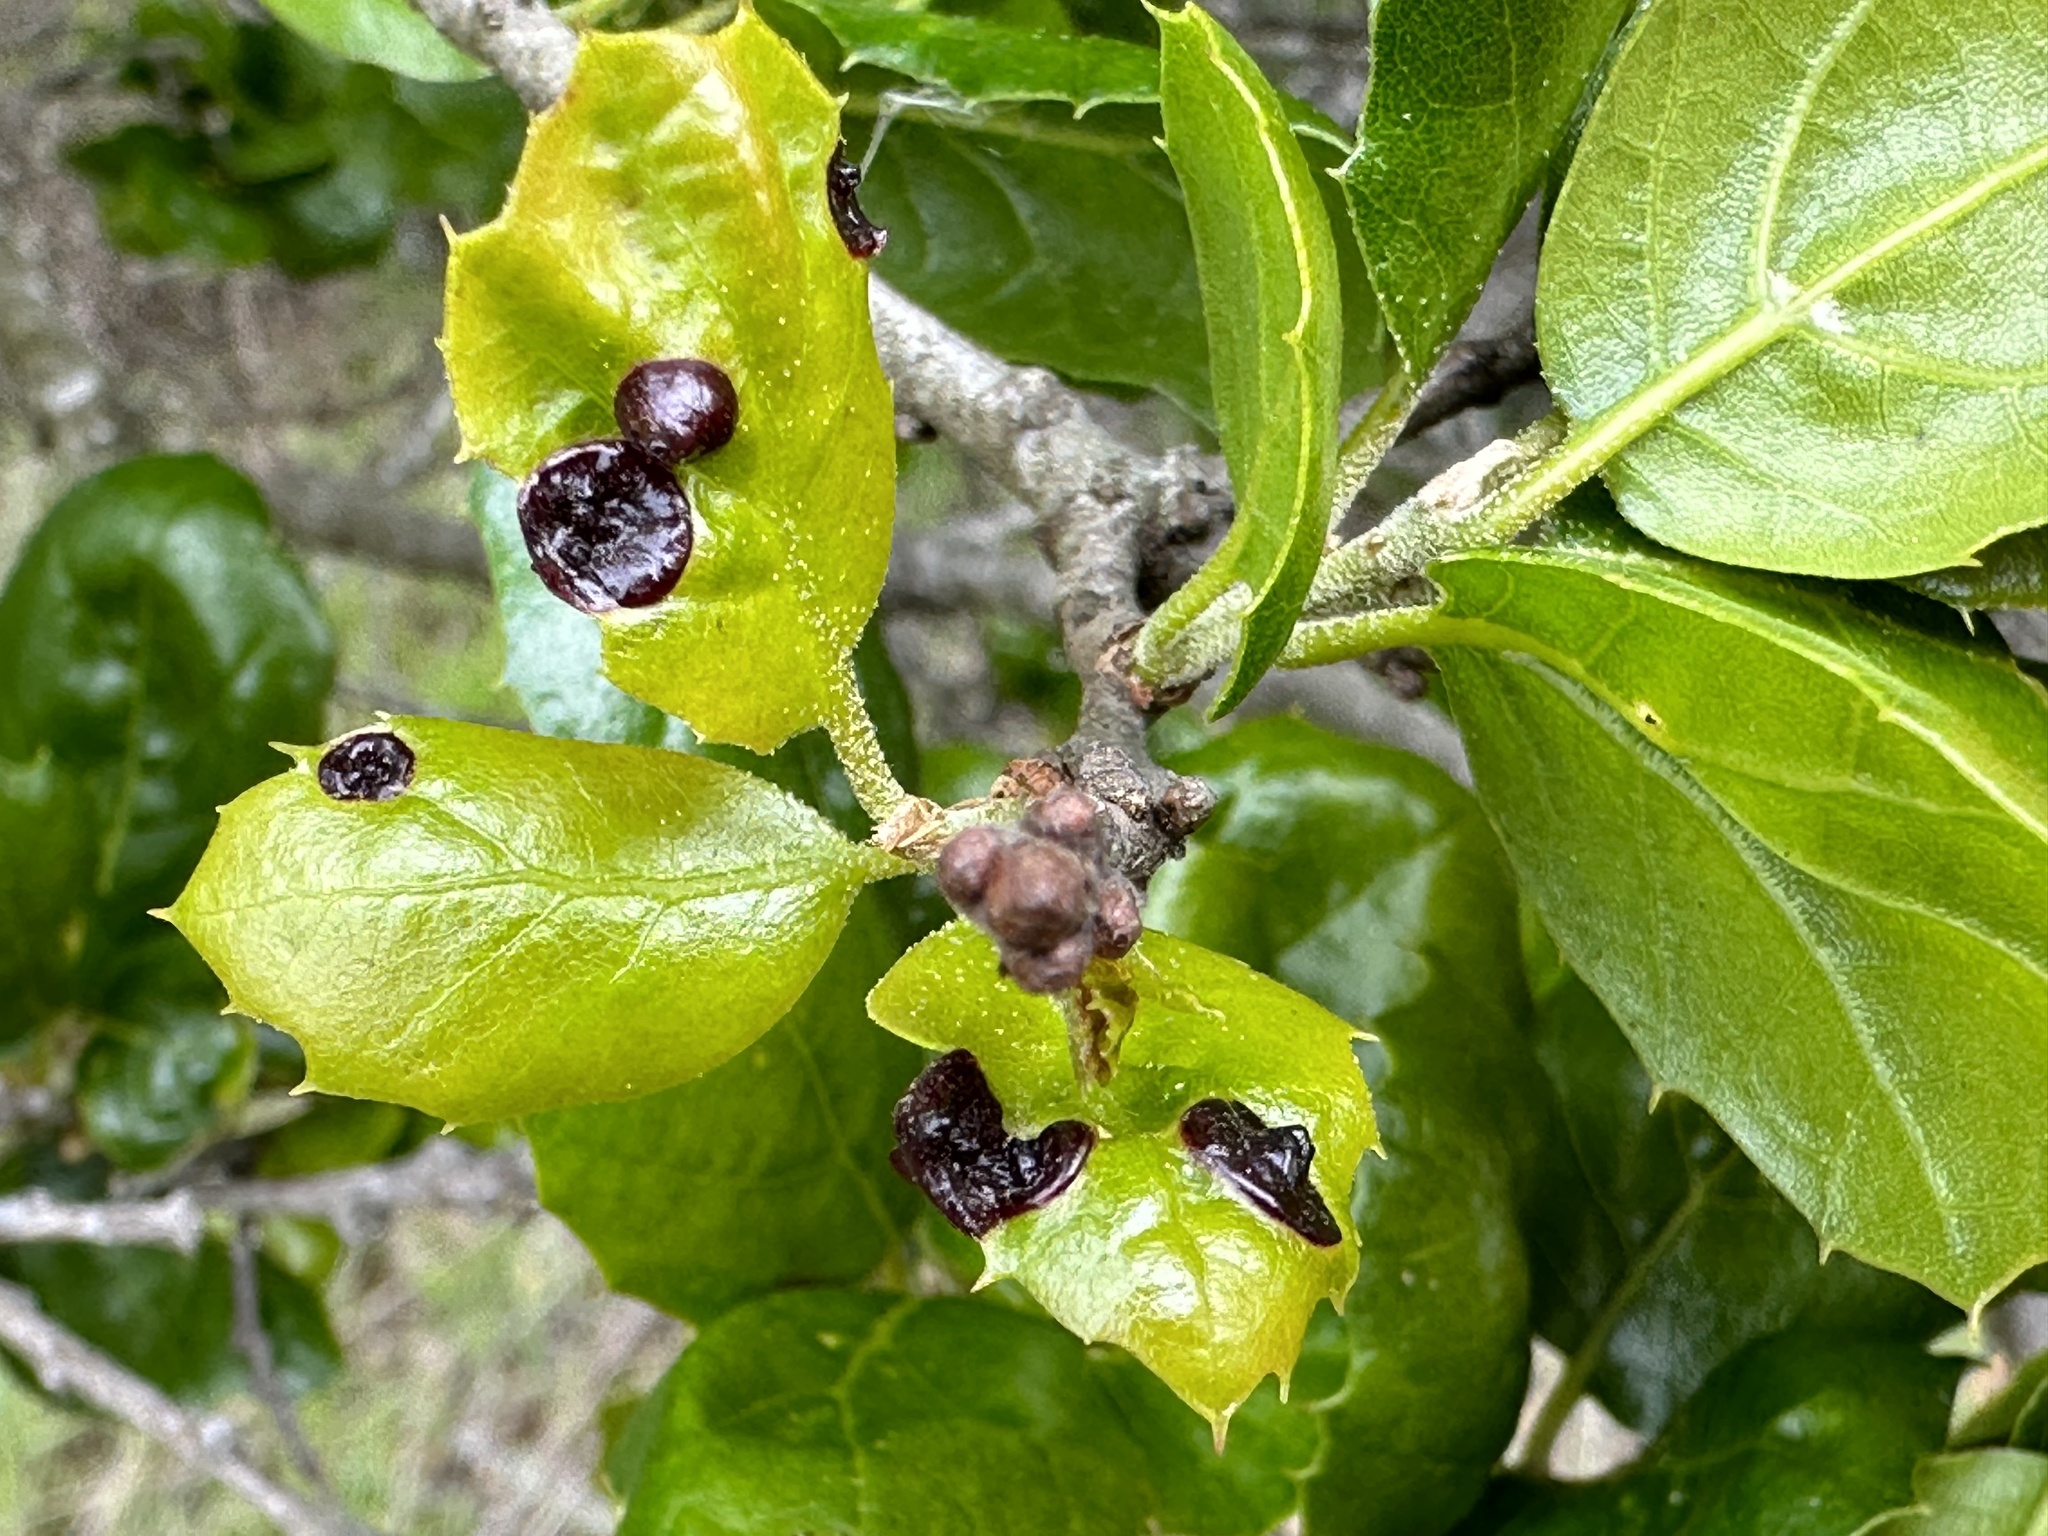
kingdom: Animalia
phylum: Arthropoda
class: Insecta
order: Hymenoptera
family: Cynipidae
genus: Dryocosmus
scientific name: Dryocosmus
